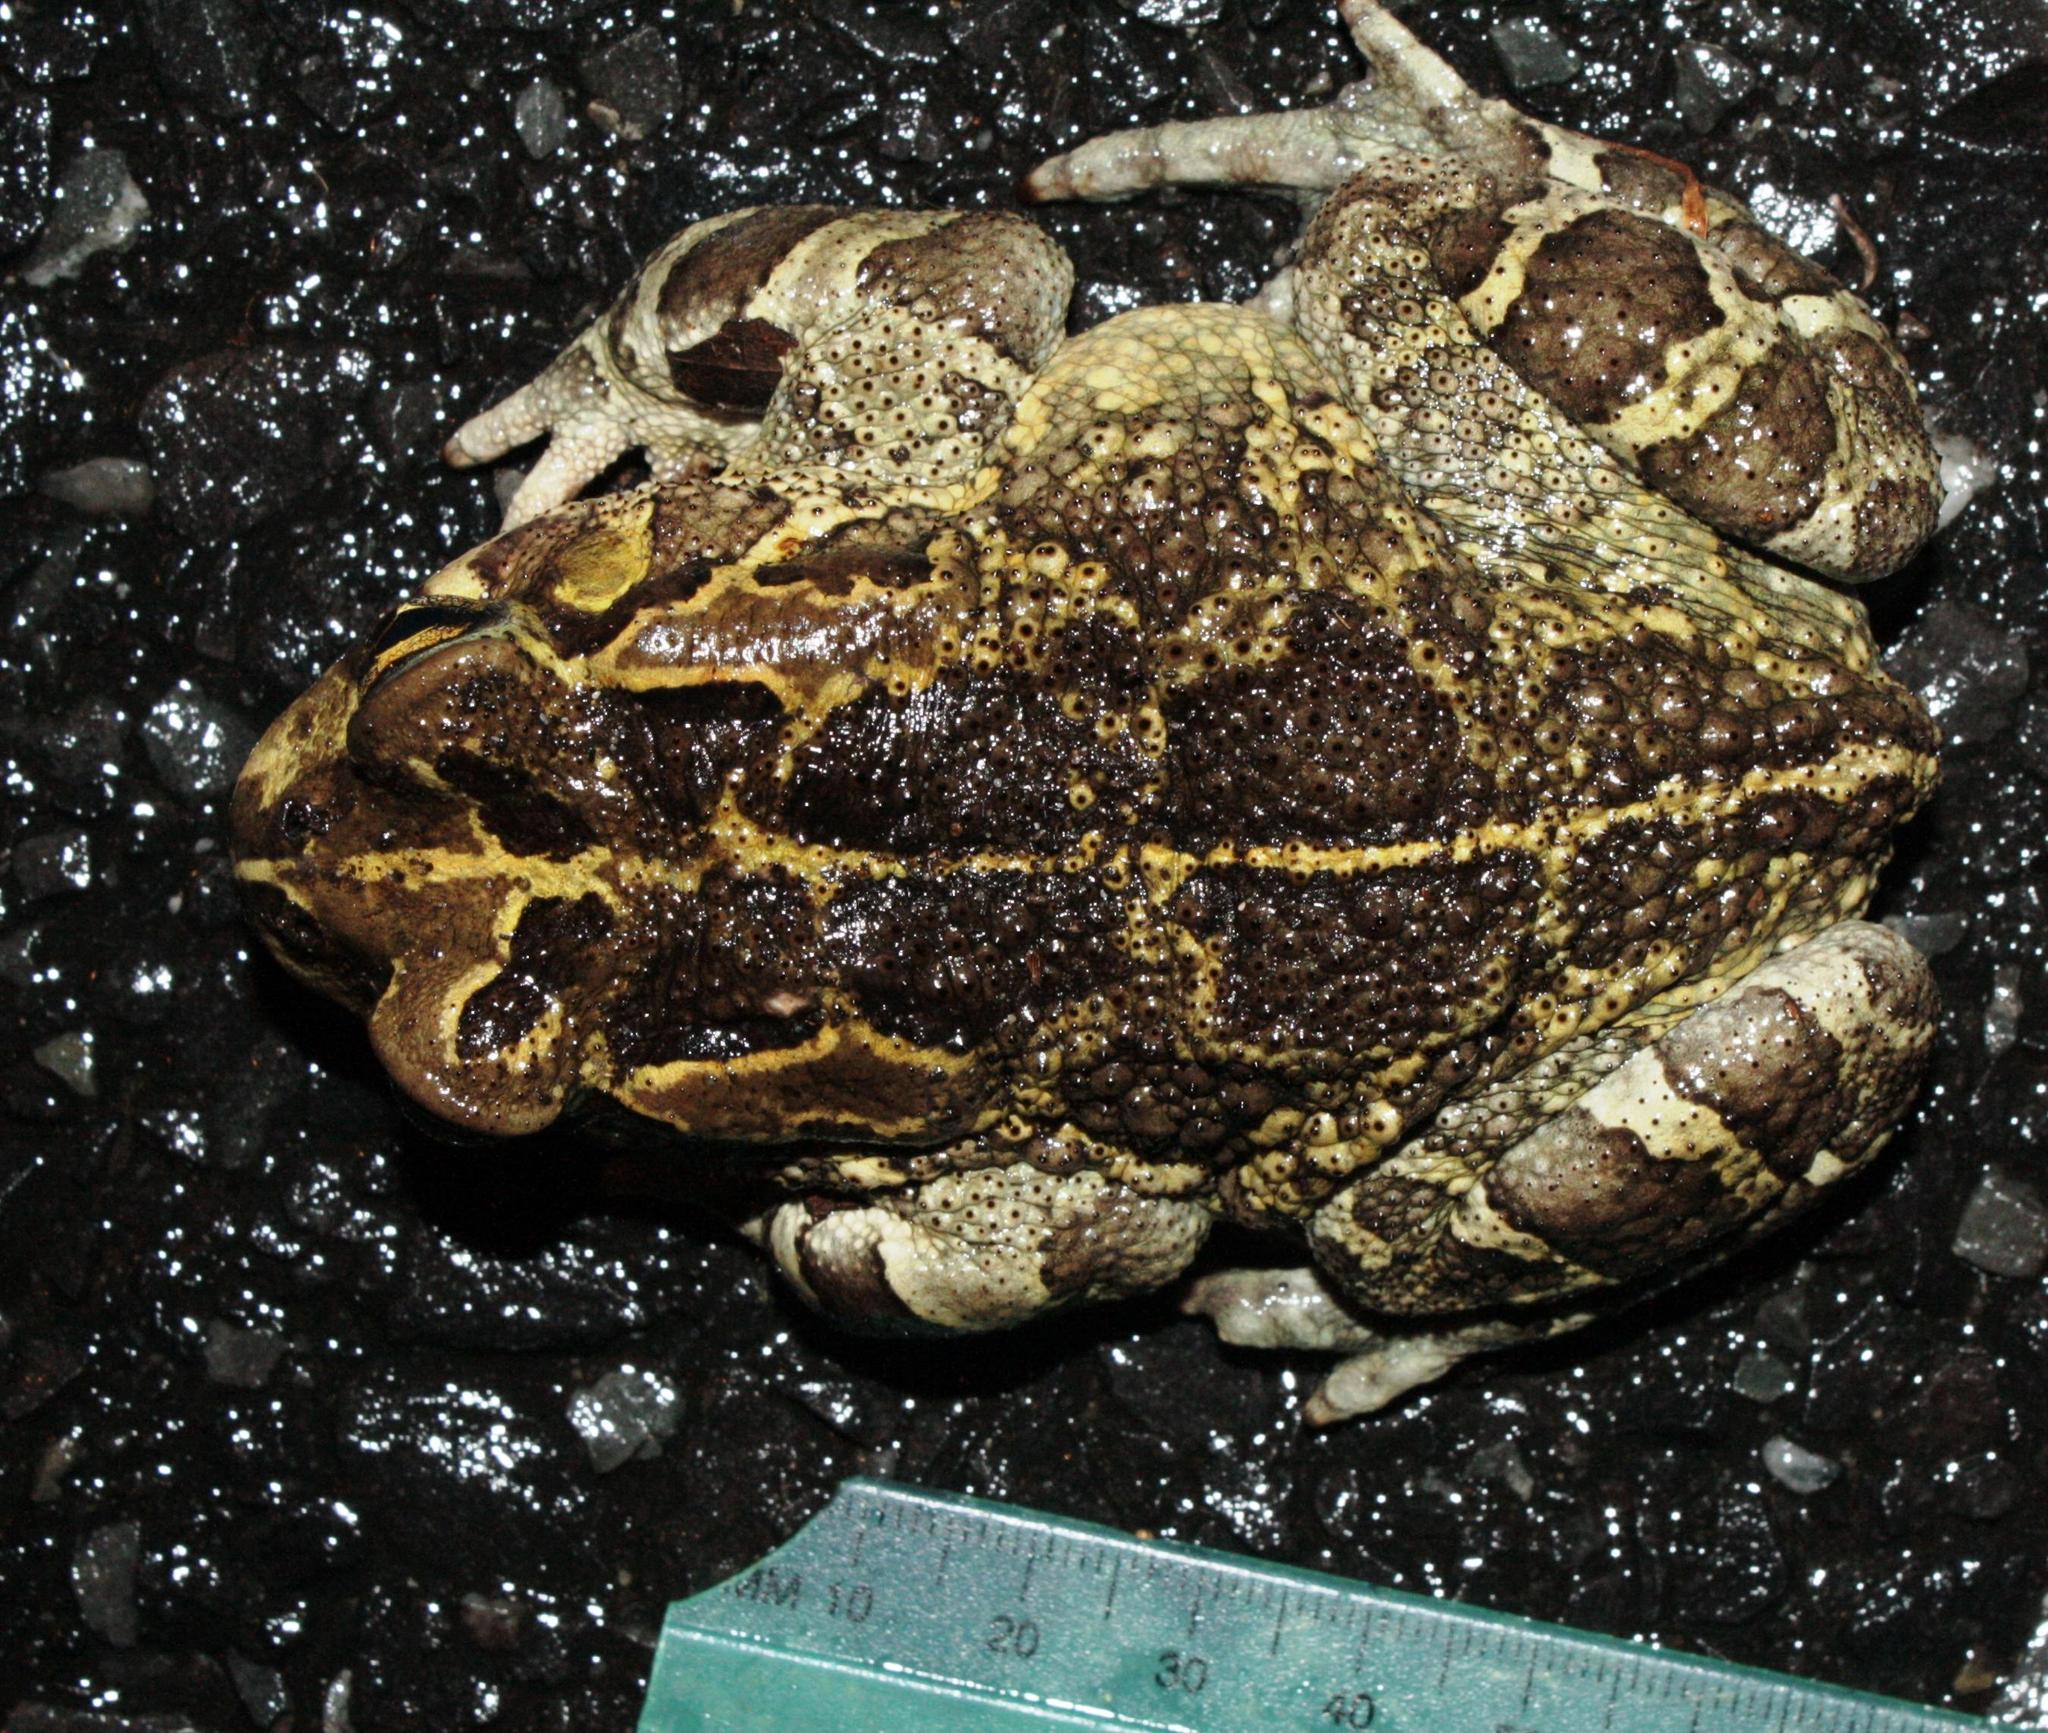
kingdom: Animalia
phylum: Chordata
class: Amphibia
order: Anura
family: Bufonidae
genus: Sclerophrys
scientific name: Sclerophrys pantherina
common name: Panther toad
